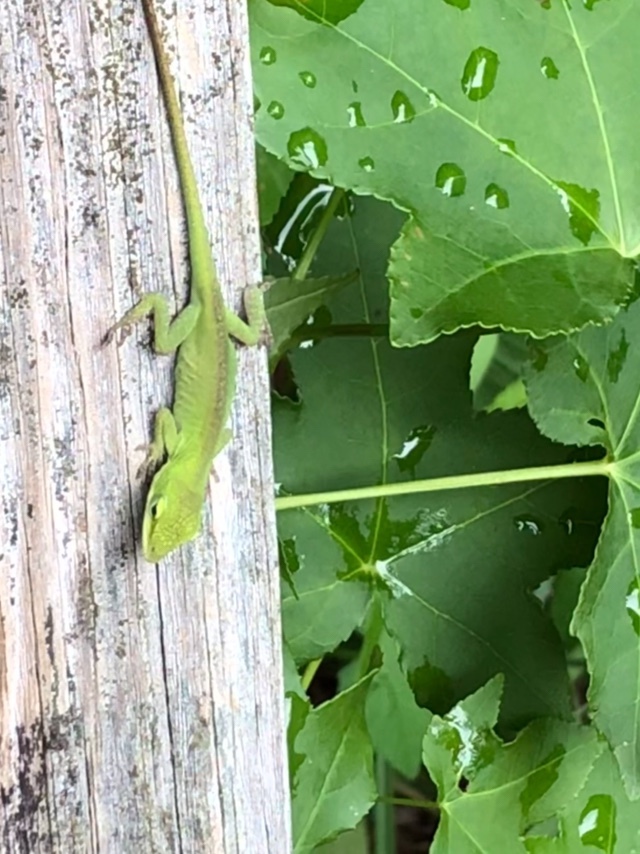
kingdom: Animalia
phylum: Chordata
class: Squamata
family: Dactyloidae
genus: Anolis
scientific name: Anolis carolinensis
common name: Green anole
